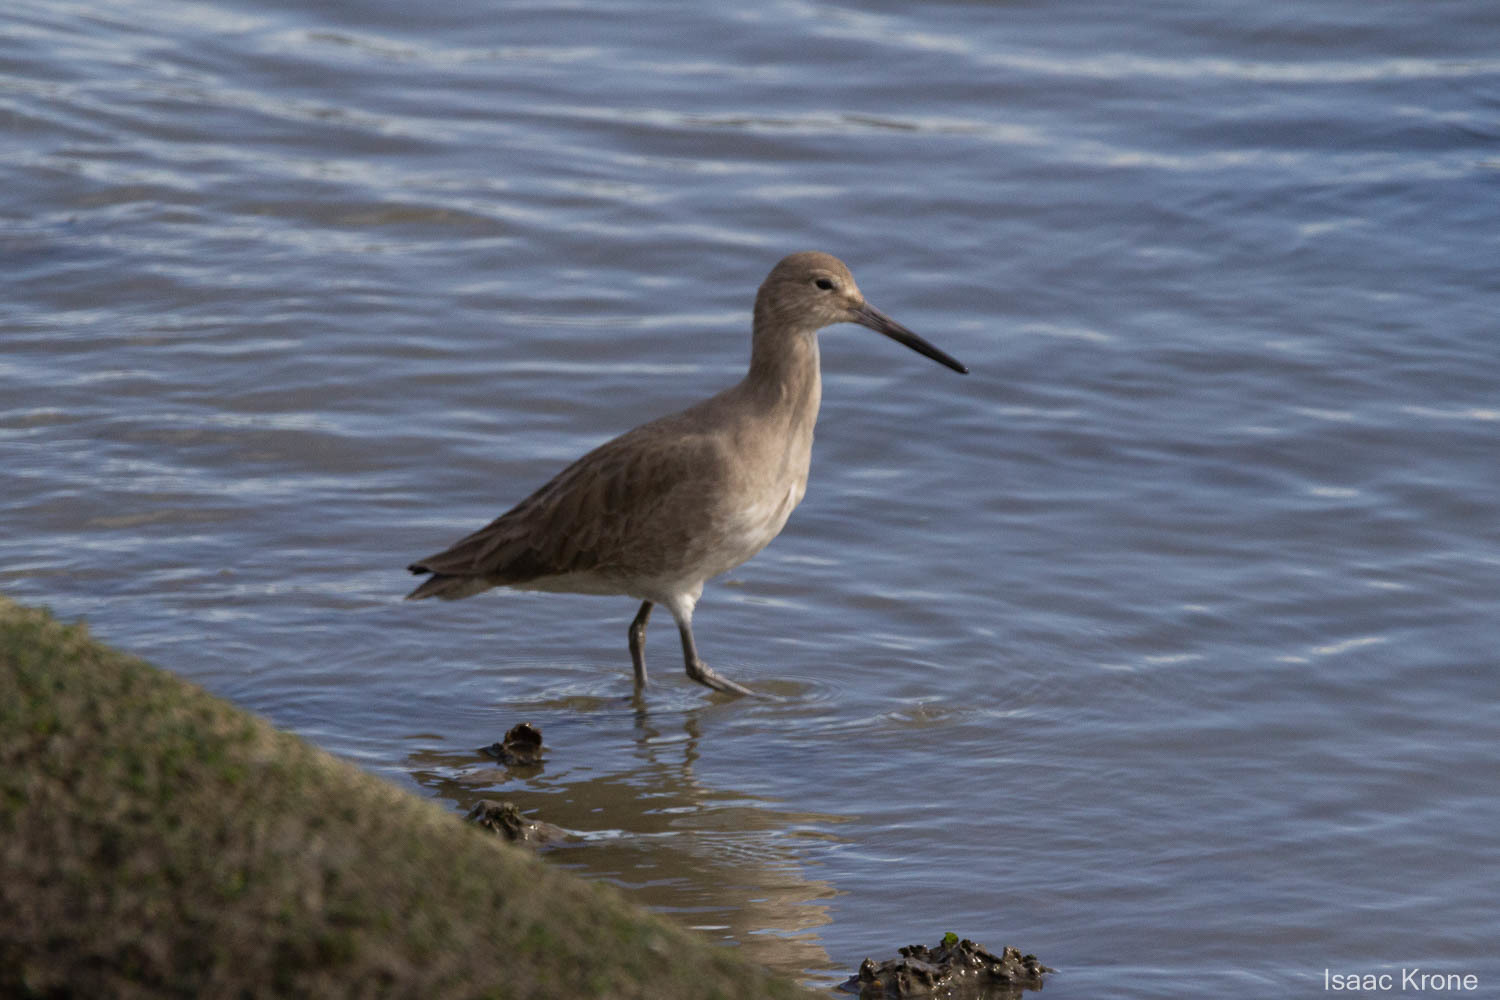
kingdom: Animalia
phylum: Chordata
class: Aves
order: Charadriiformes
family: Scolopacidae
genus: Tringa
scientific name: Tringa semipalmata
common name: Willet
